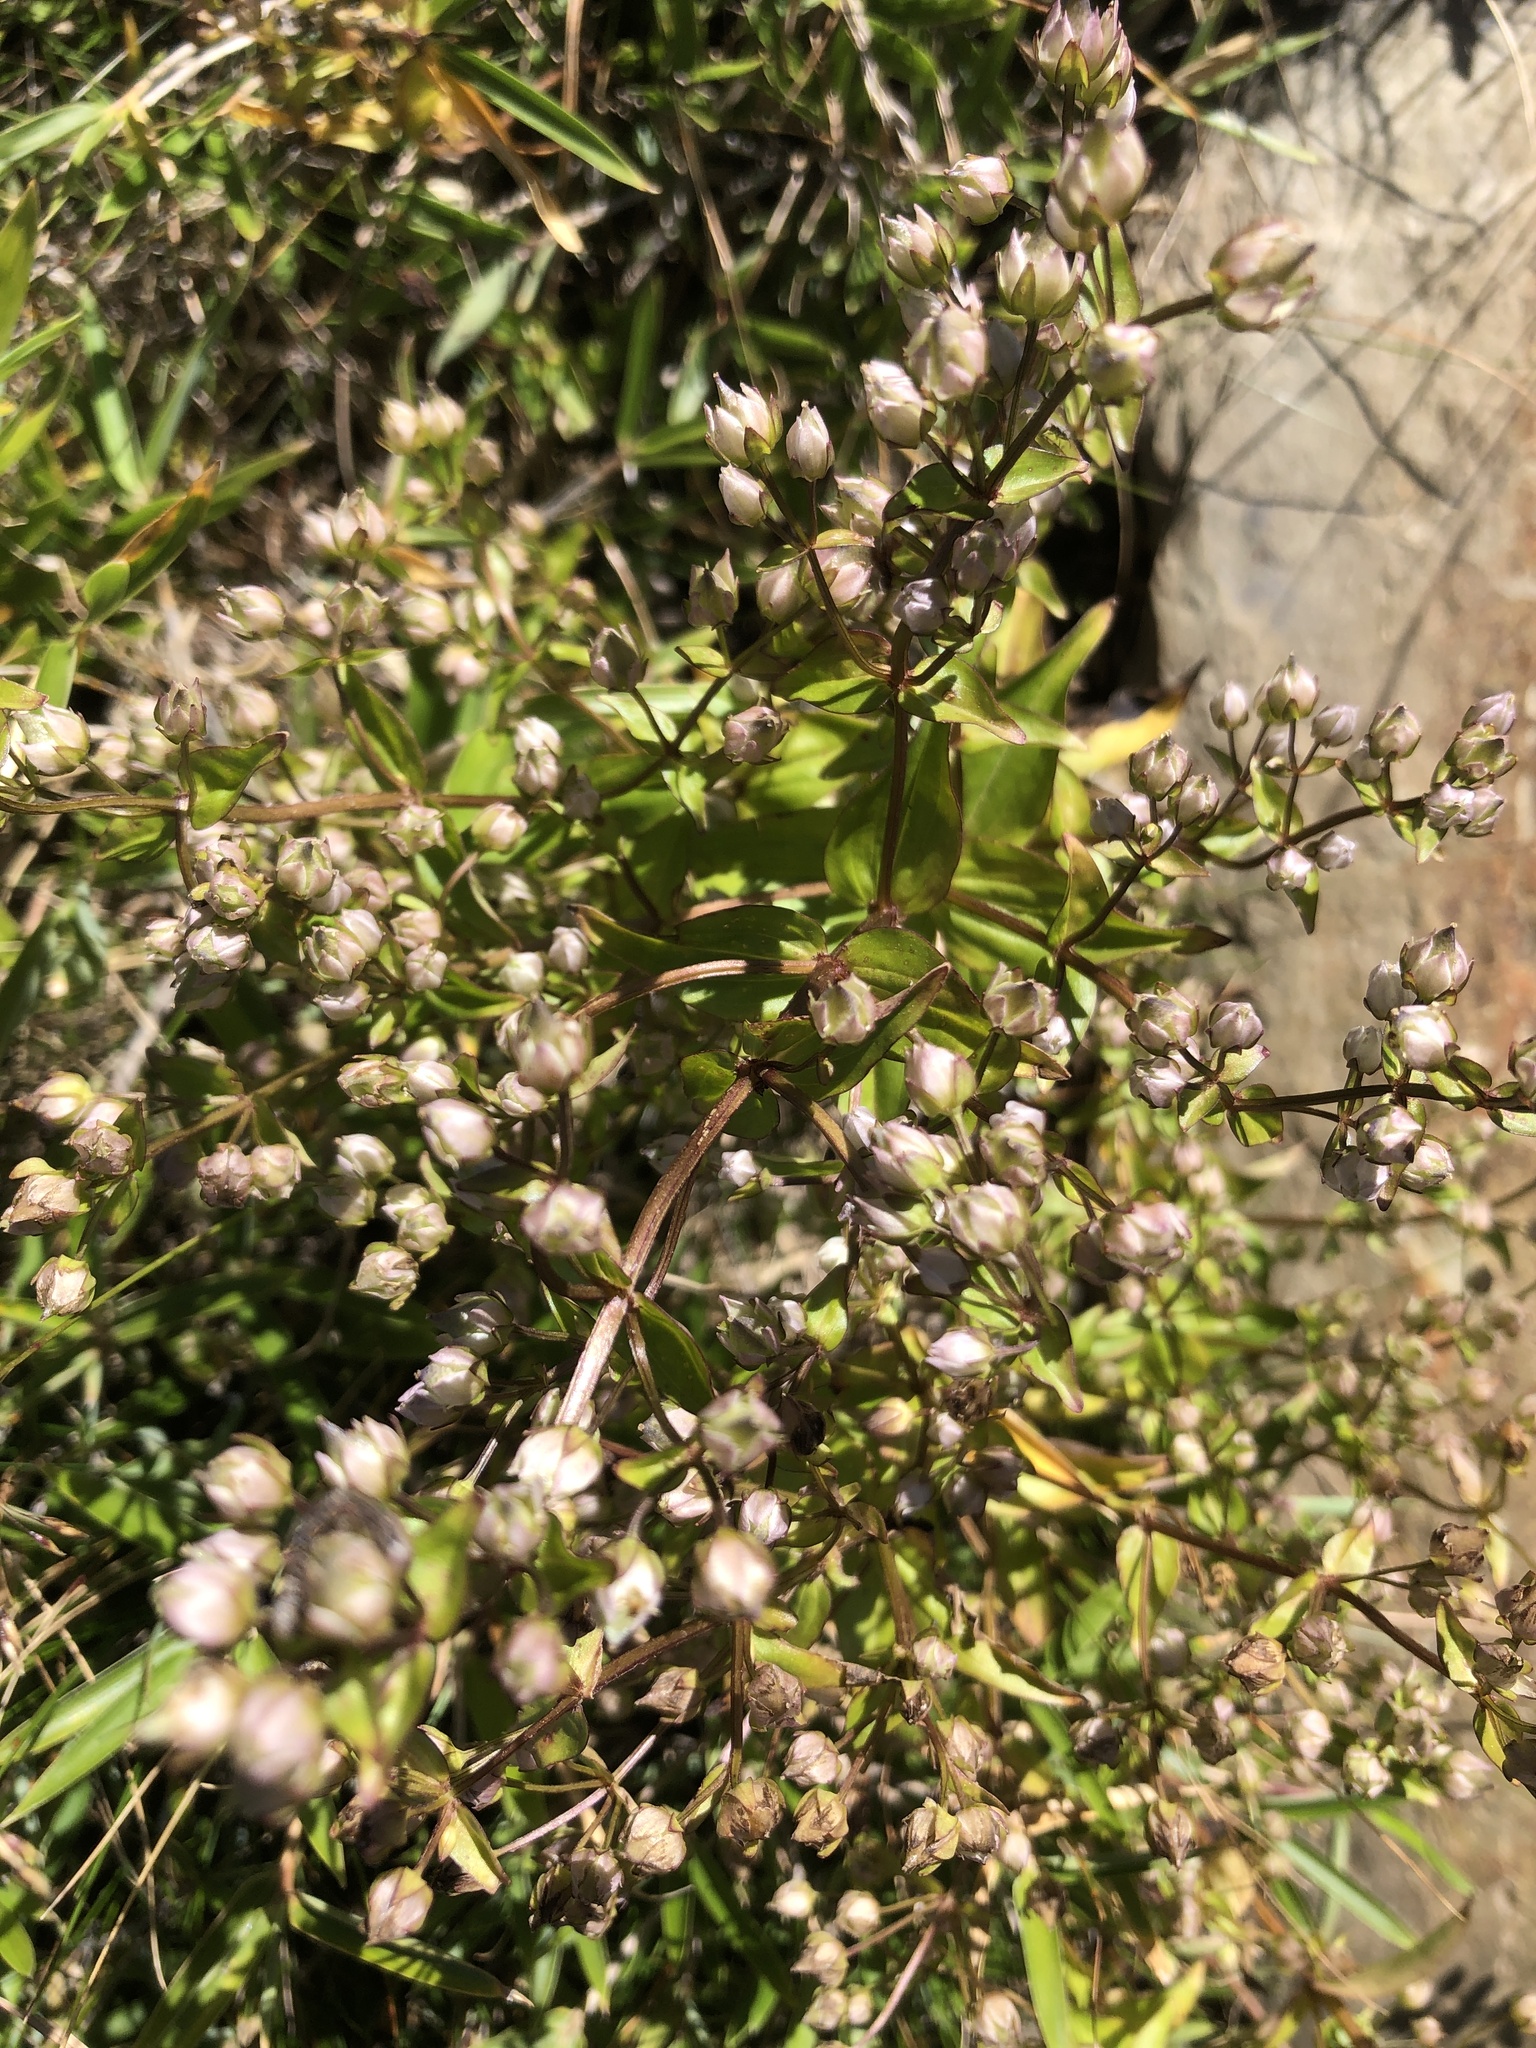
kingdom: Plantae
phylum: Tracheophyta
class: Magnoliopsida
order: Gentianales
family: Gentianaceae
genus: Swertia
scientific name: Swertia macrosperma
